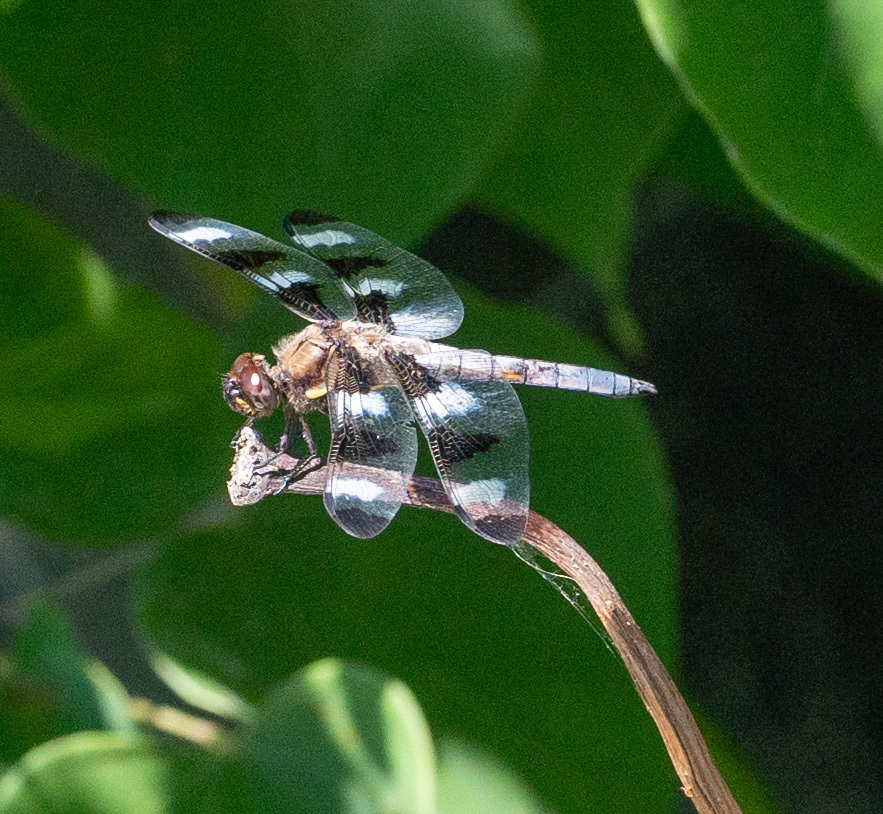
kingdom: Animalia
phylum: Arthropoda
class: Insecta
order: Odonata
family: Libellulidae
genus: Libellula
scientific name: Libellula pulchella
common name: Twelve-spotted skimmer
